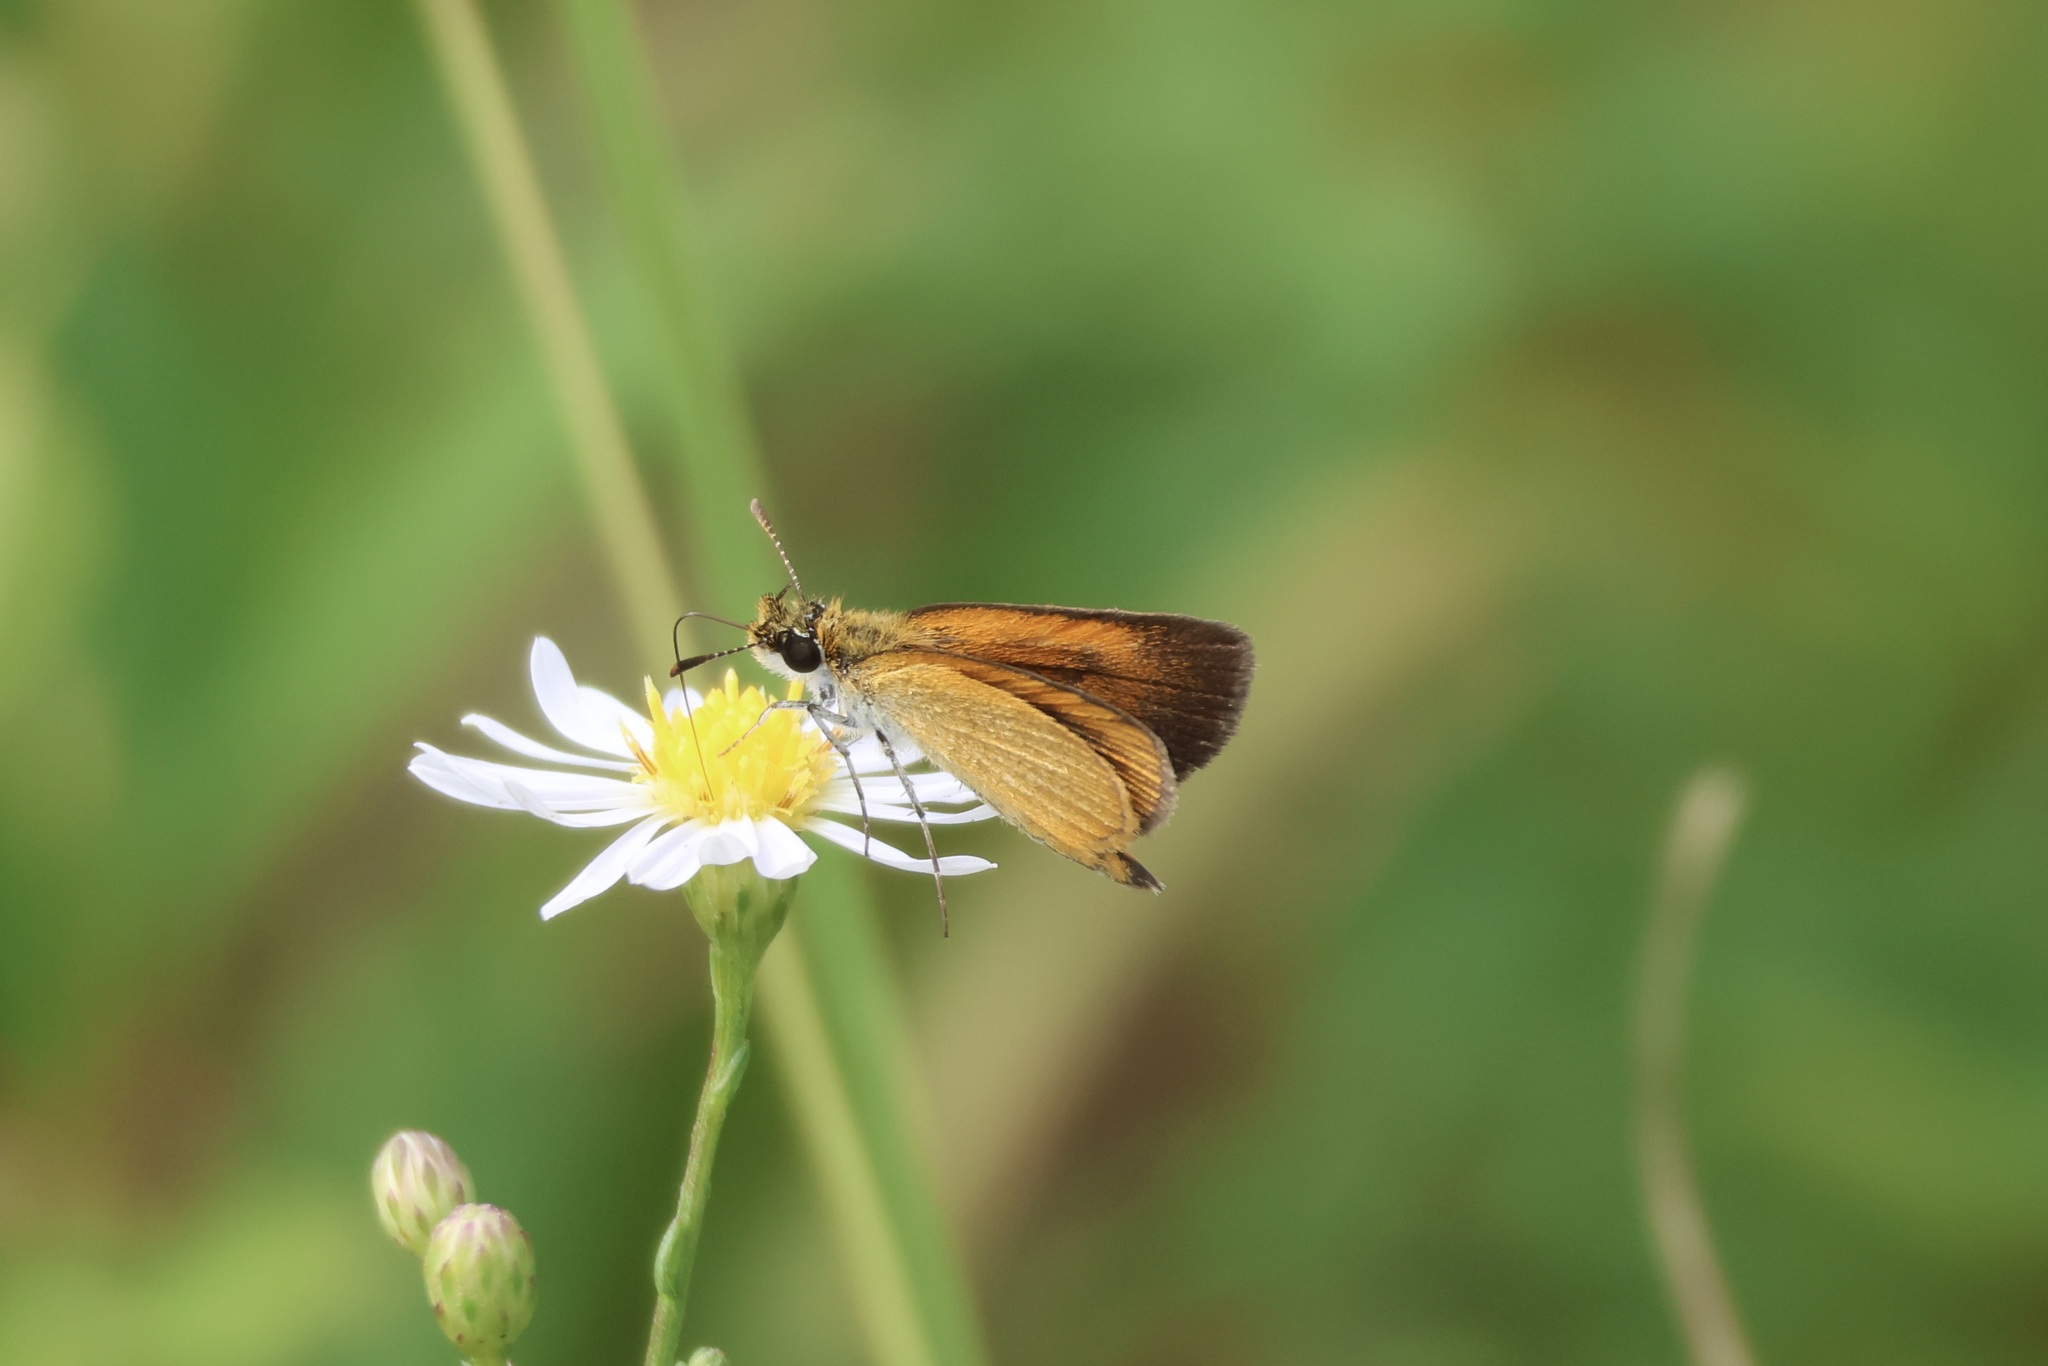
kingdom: Animalia
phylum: Arthropoda
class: Insecta
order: Lepidoptera
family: Hesperiidae
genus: Ancyloxypha
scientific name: Ancyloxypha numitor
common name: Least skipper
